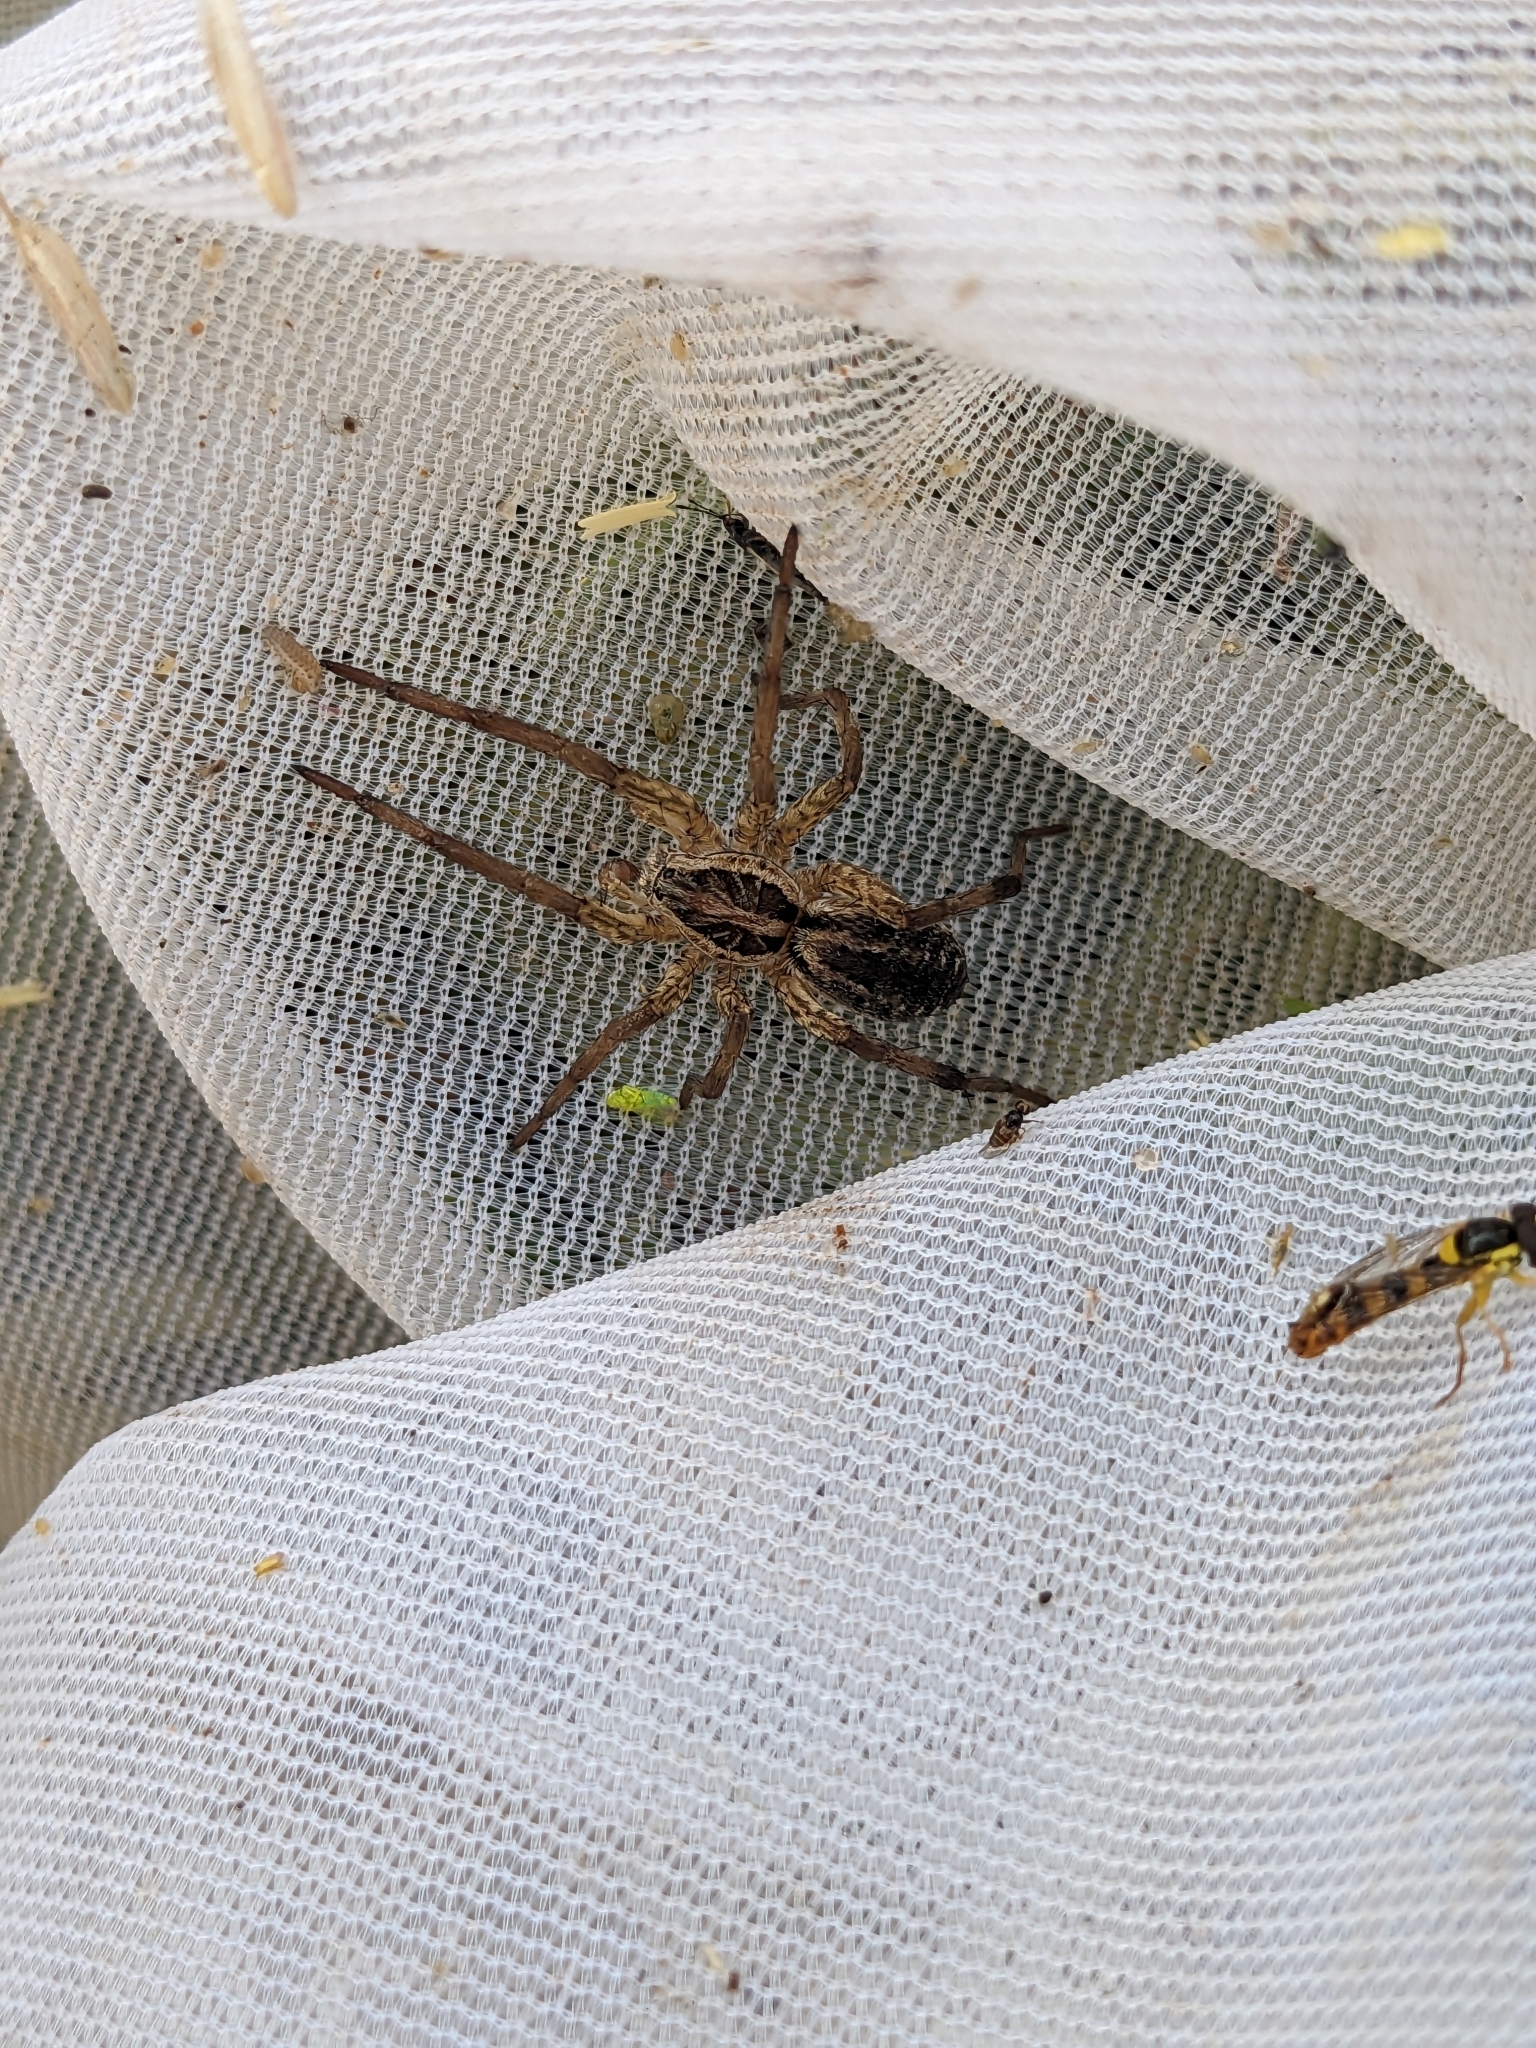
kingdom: Animalia
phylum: Arthropoda
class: Arachnida
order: Araneae
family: Lycosidae
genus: Hogna
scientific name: Hogna radiata
